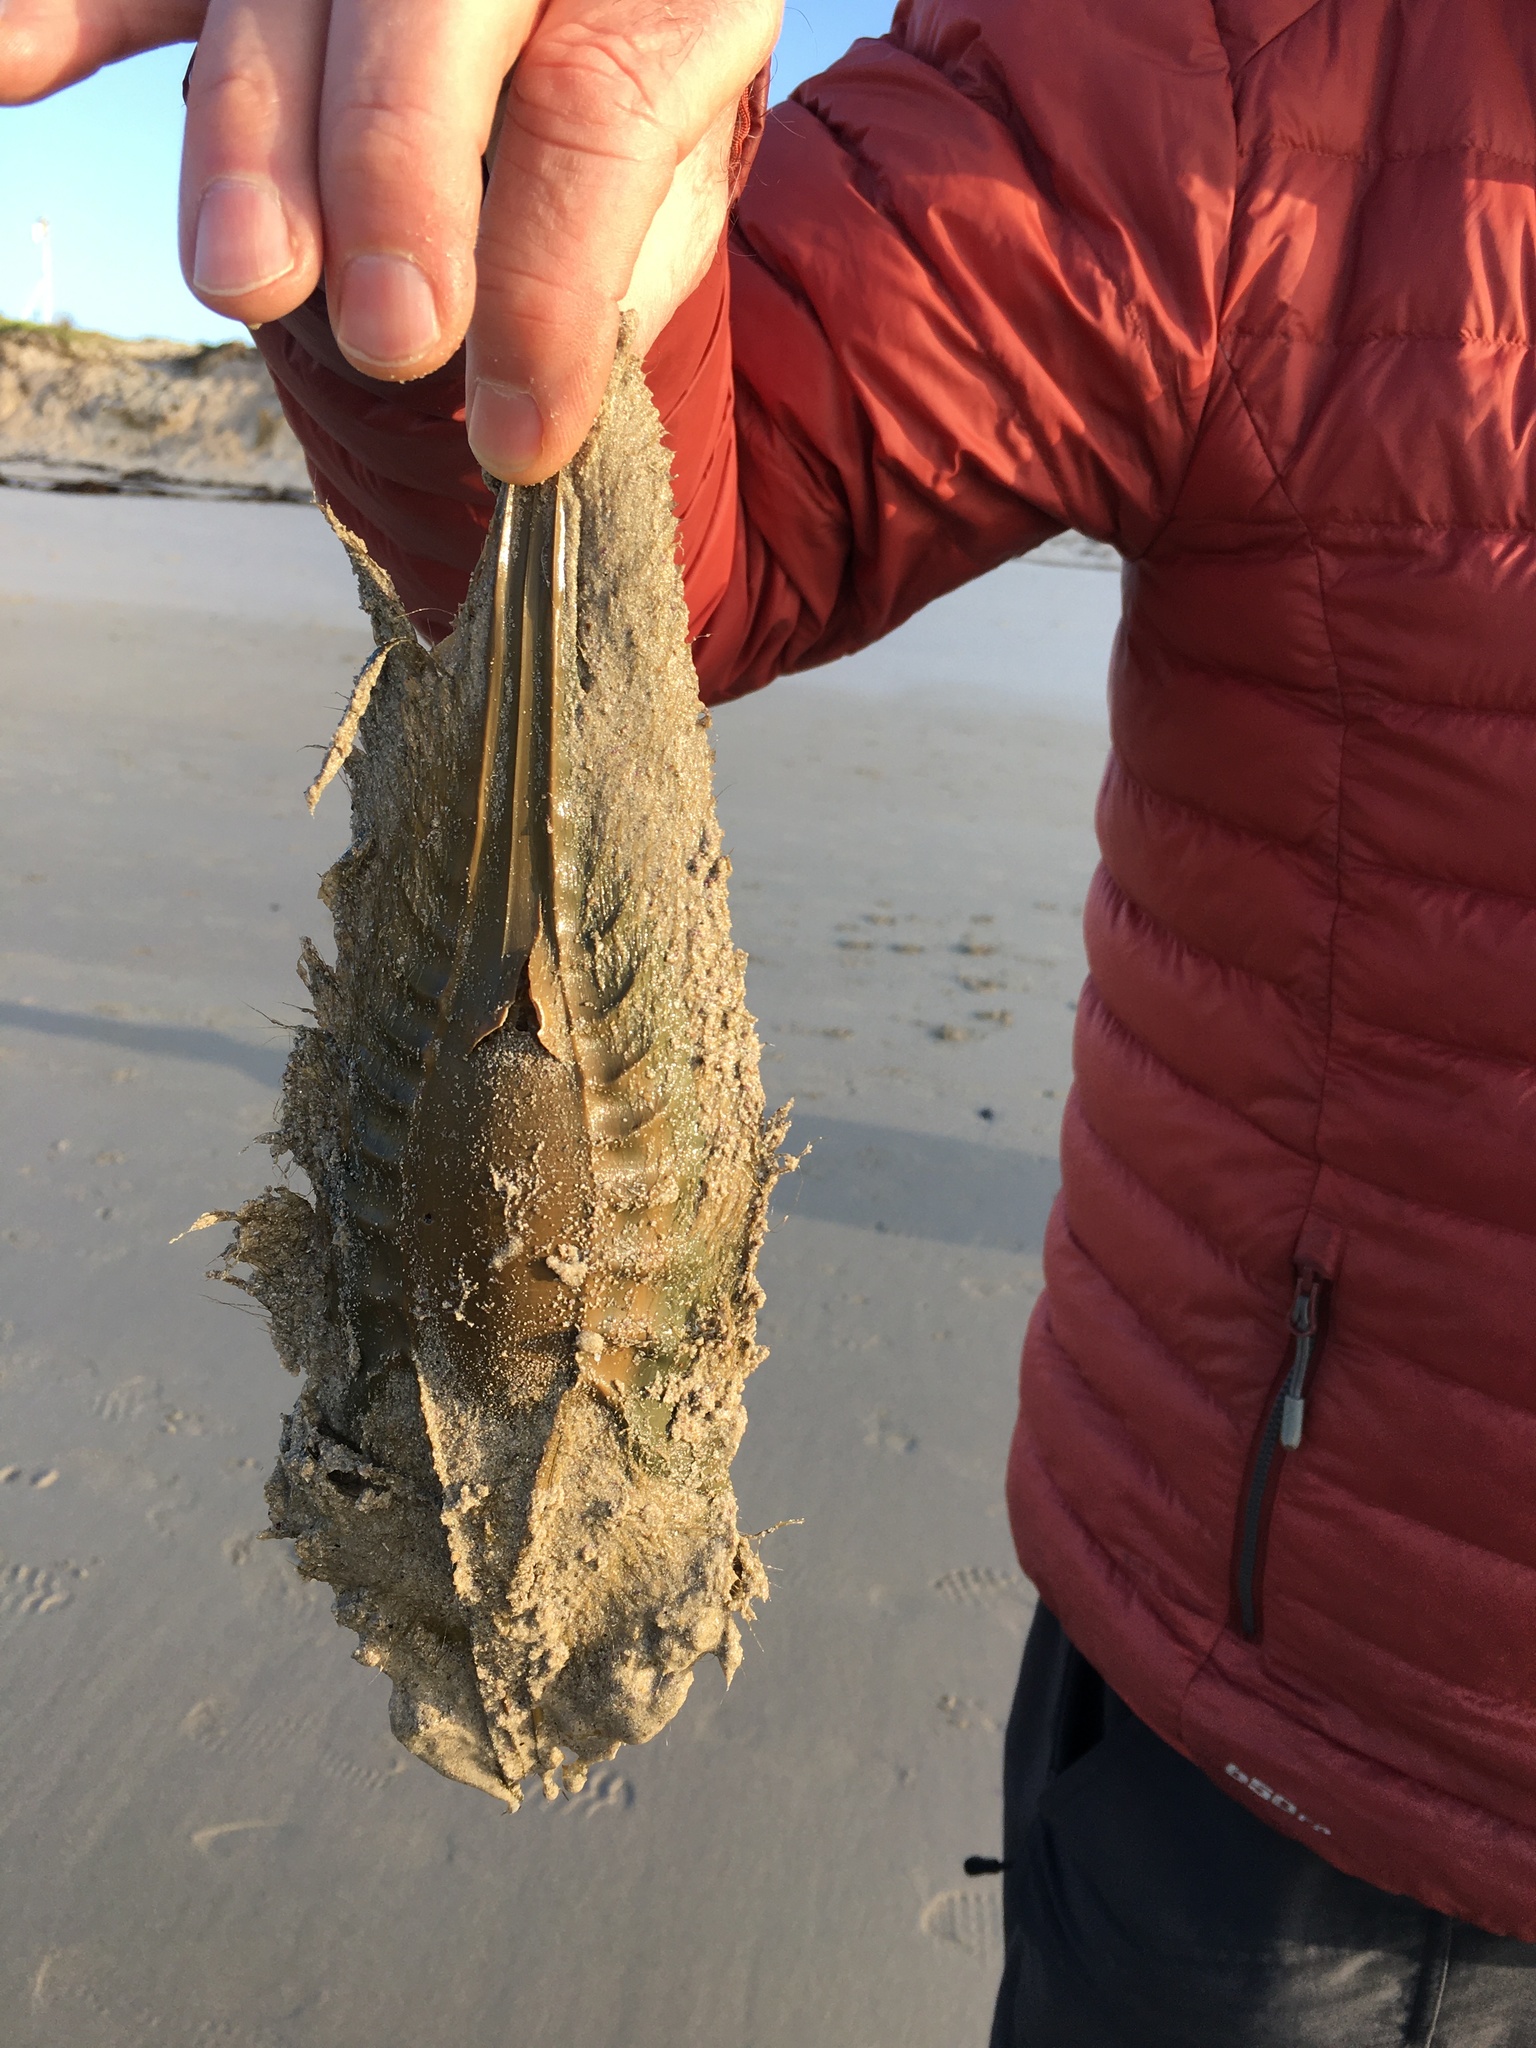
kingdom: Animalia
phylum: Chordata
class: Holocephali
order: Chimaeriformes
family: Callorhinchidae
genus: Callorhinchus
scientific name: Callorhinchus capensis
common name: Cape elephantfish
